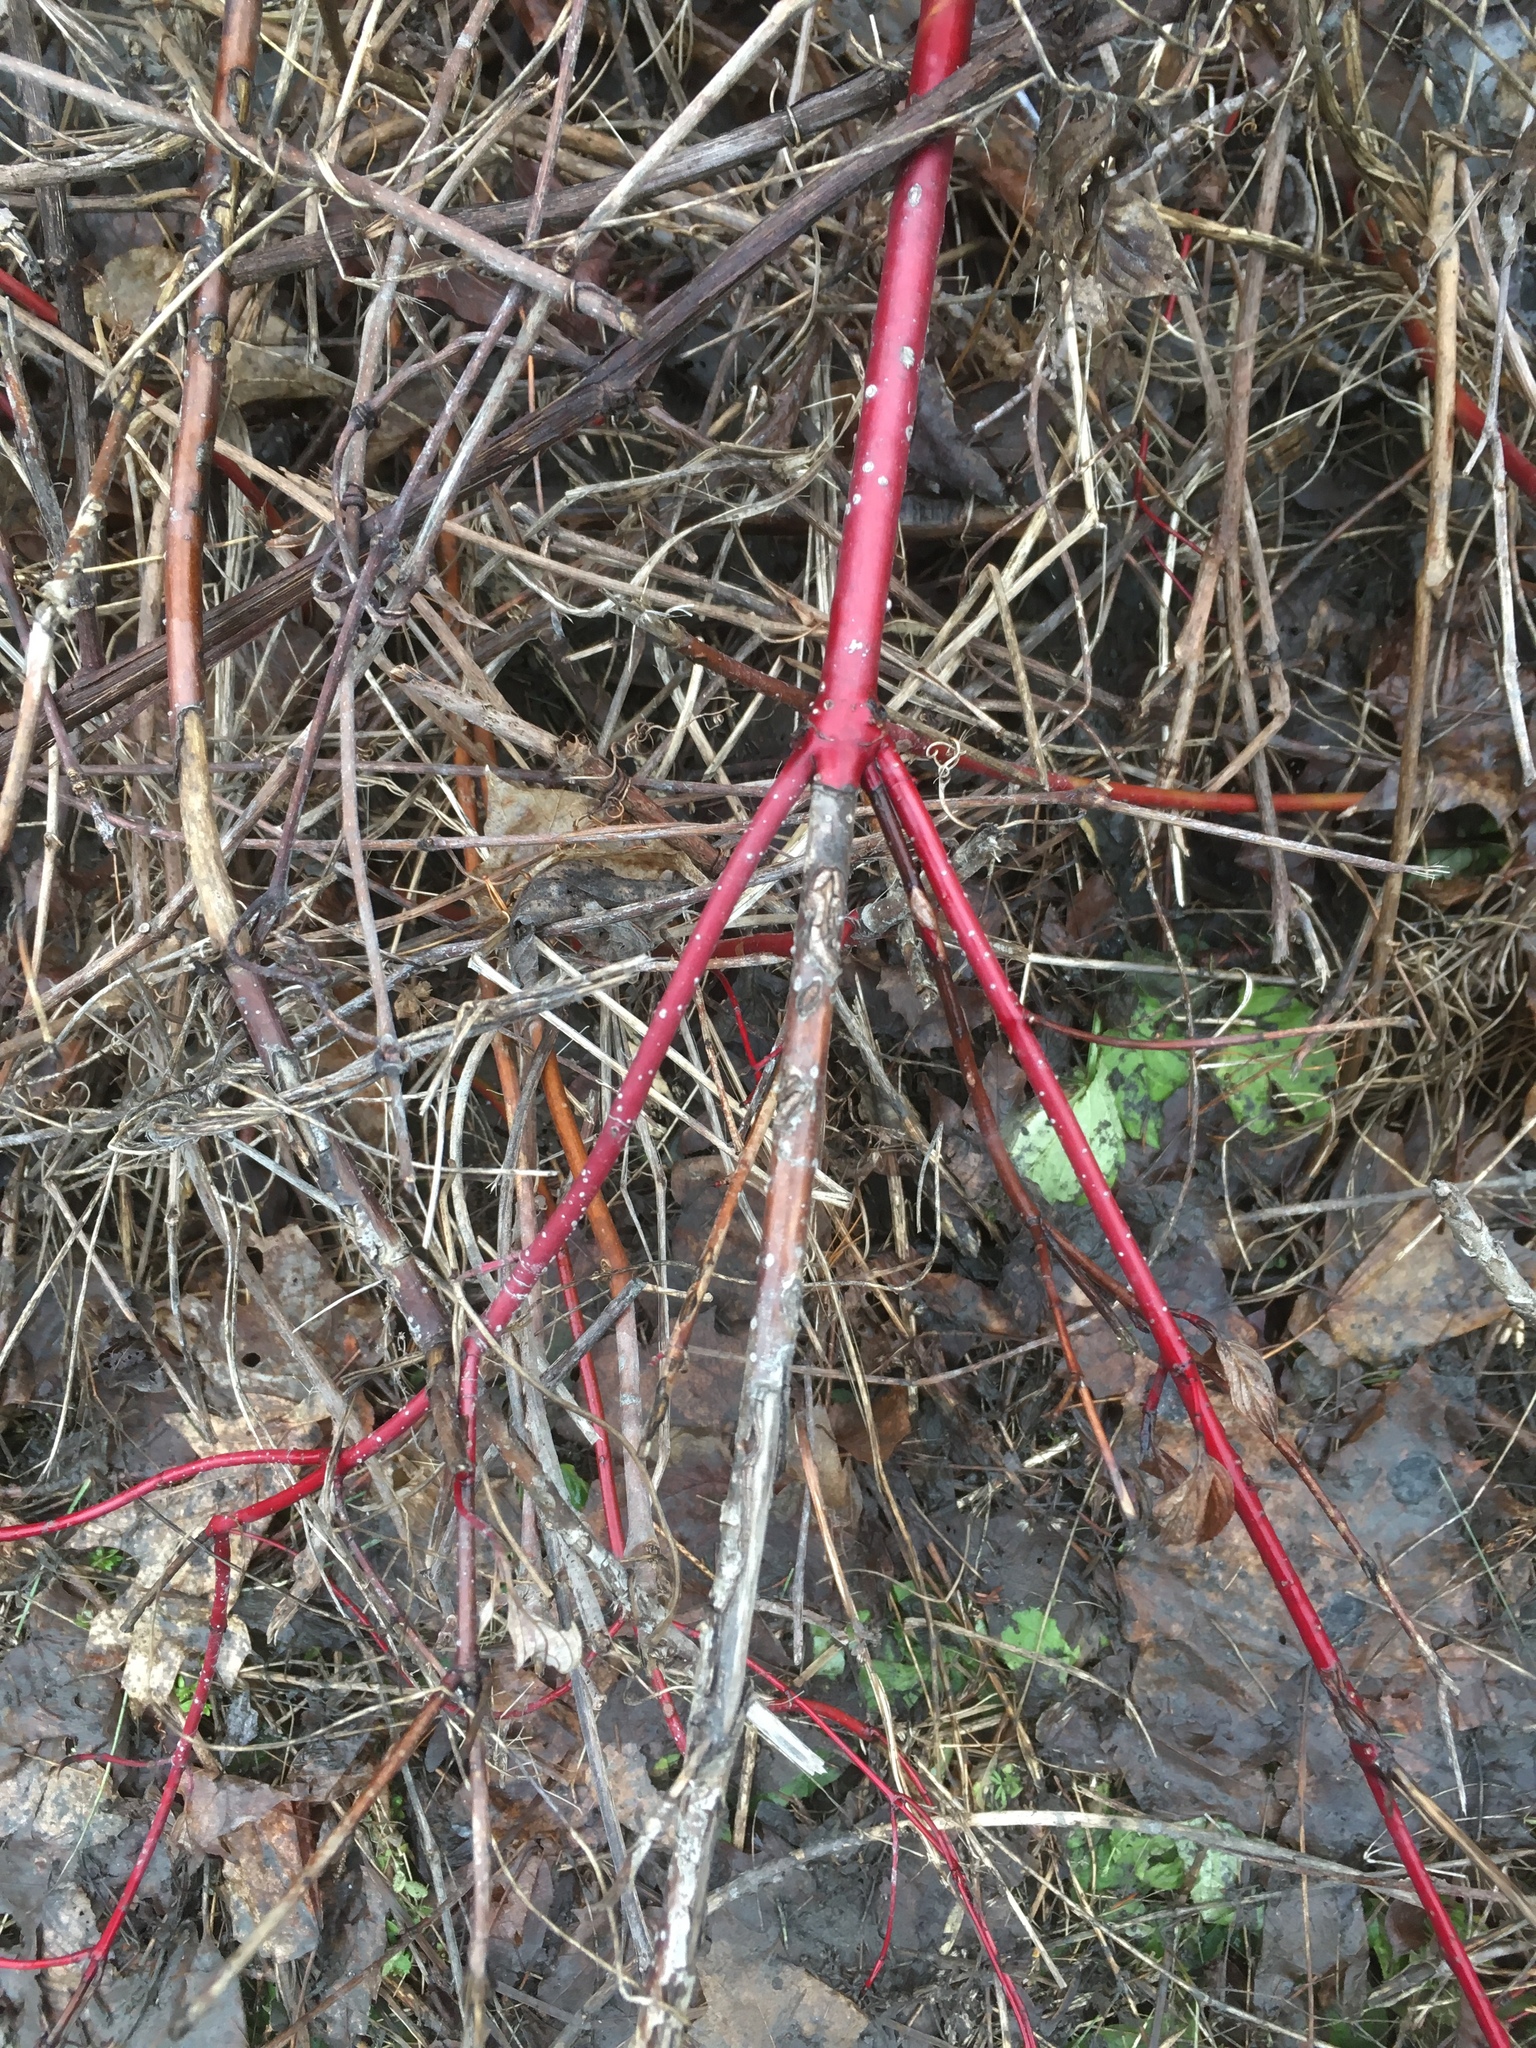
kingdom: Plantae
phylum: Tracheophyta
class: Magnoliopsida
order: Cornales
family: Cornaceae
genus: Cornus
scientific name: Cornus sericea
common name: Red-osier dogwood
